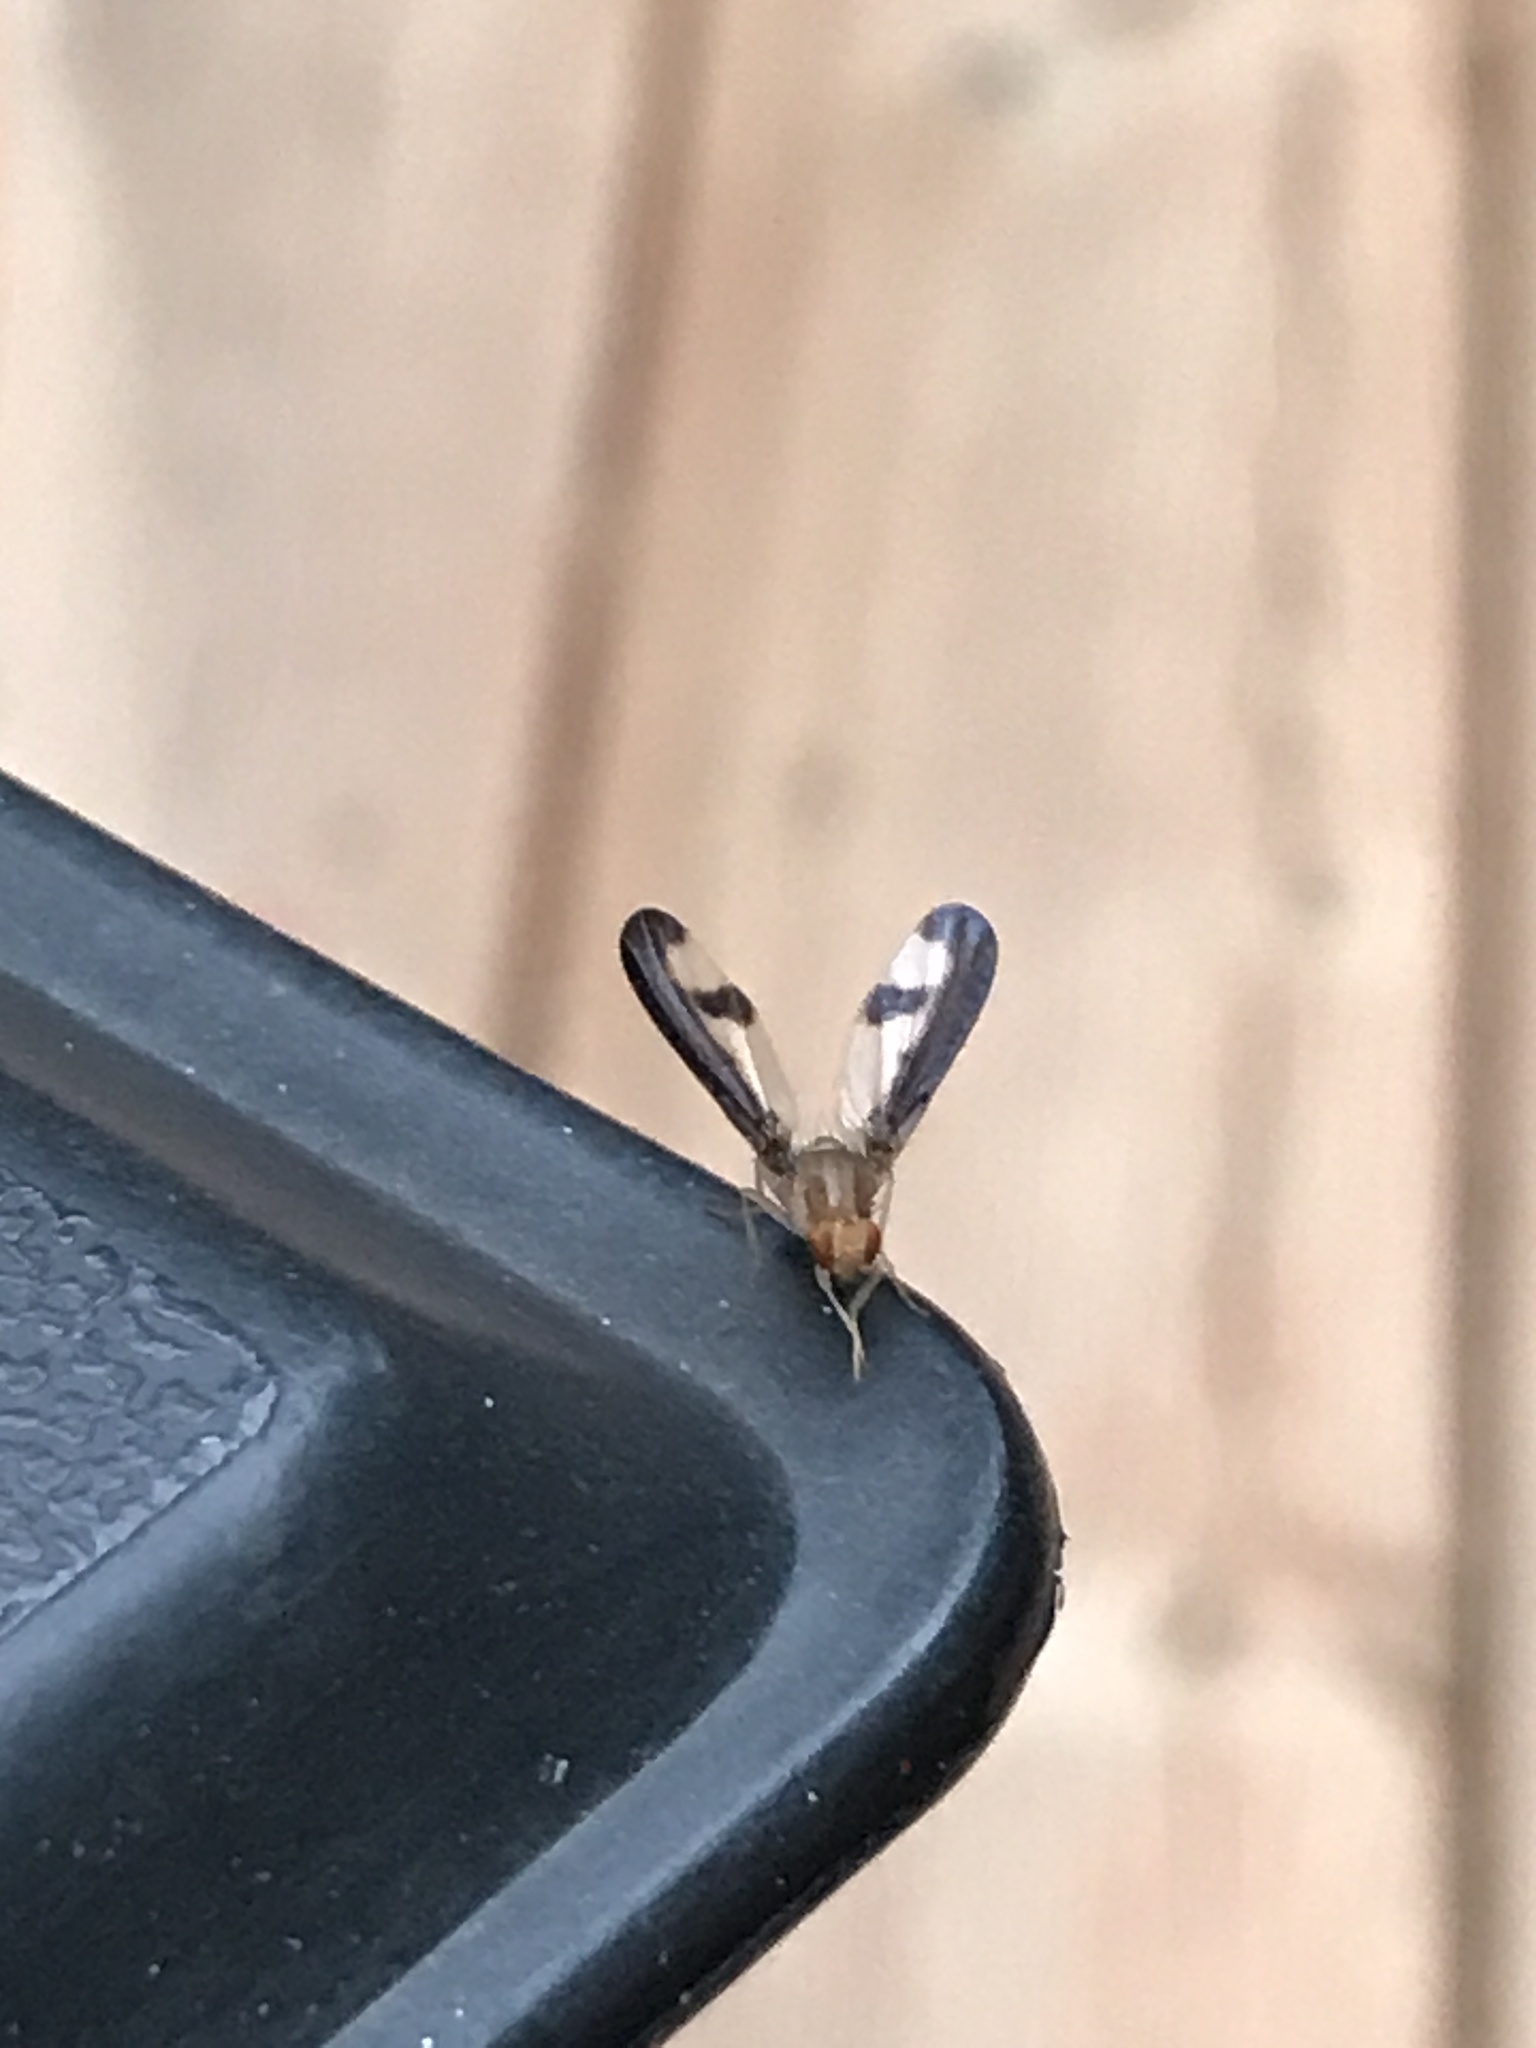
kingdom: Animalia
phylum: Arthropoda
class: Insecta
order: Diptera
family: Pallopteridae
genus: Toxonevra
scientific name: Toxonevra superba
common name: Antlered flutter fly
